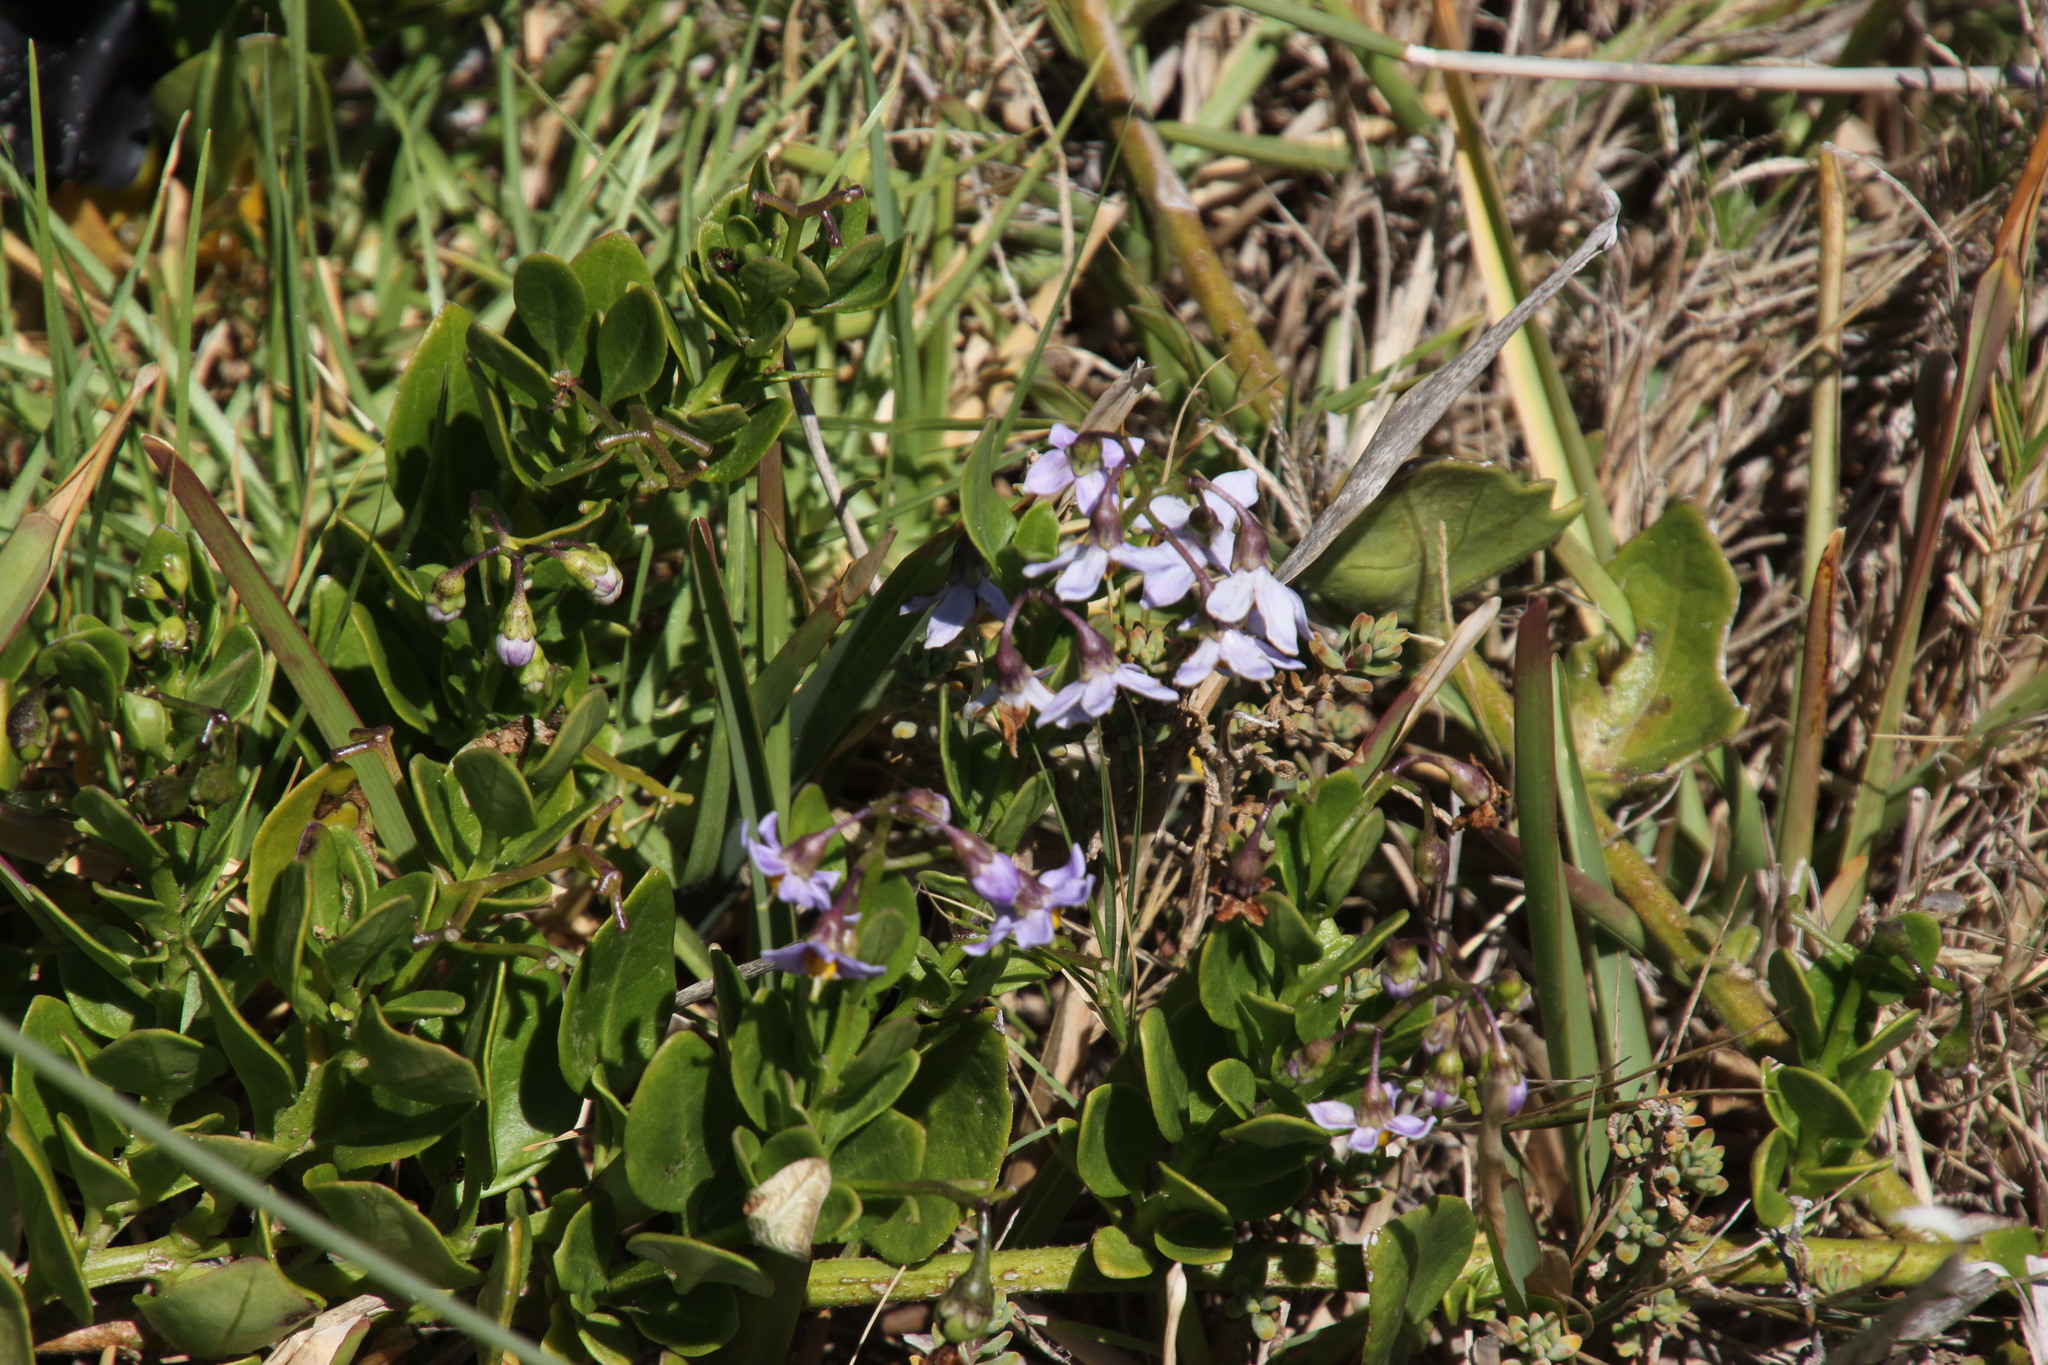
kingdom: Plantae
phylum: Tracheophyta
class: Magnoliopsida
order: Solanales
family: Solanaceae
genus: Solanum
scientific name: Solanum africanum
